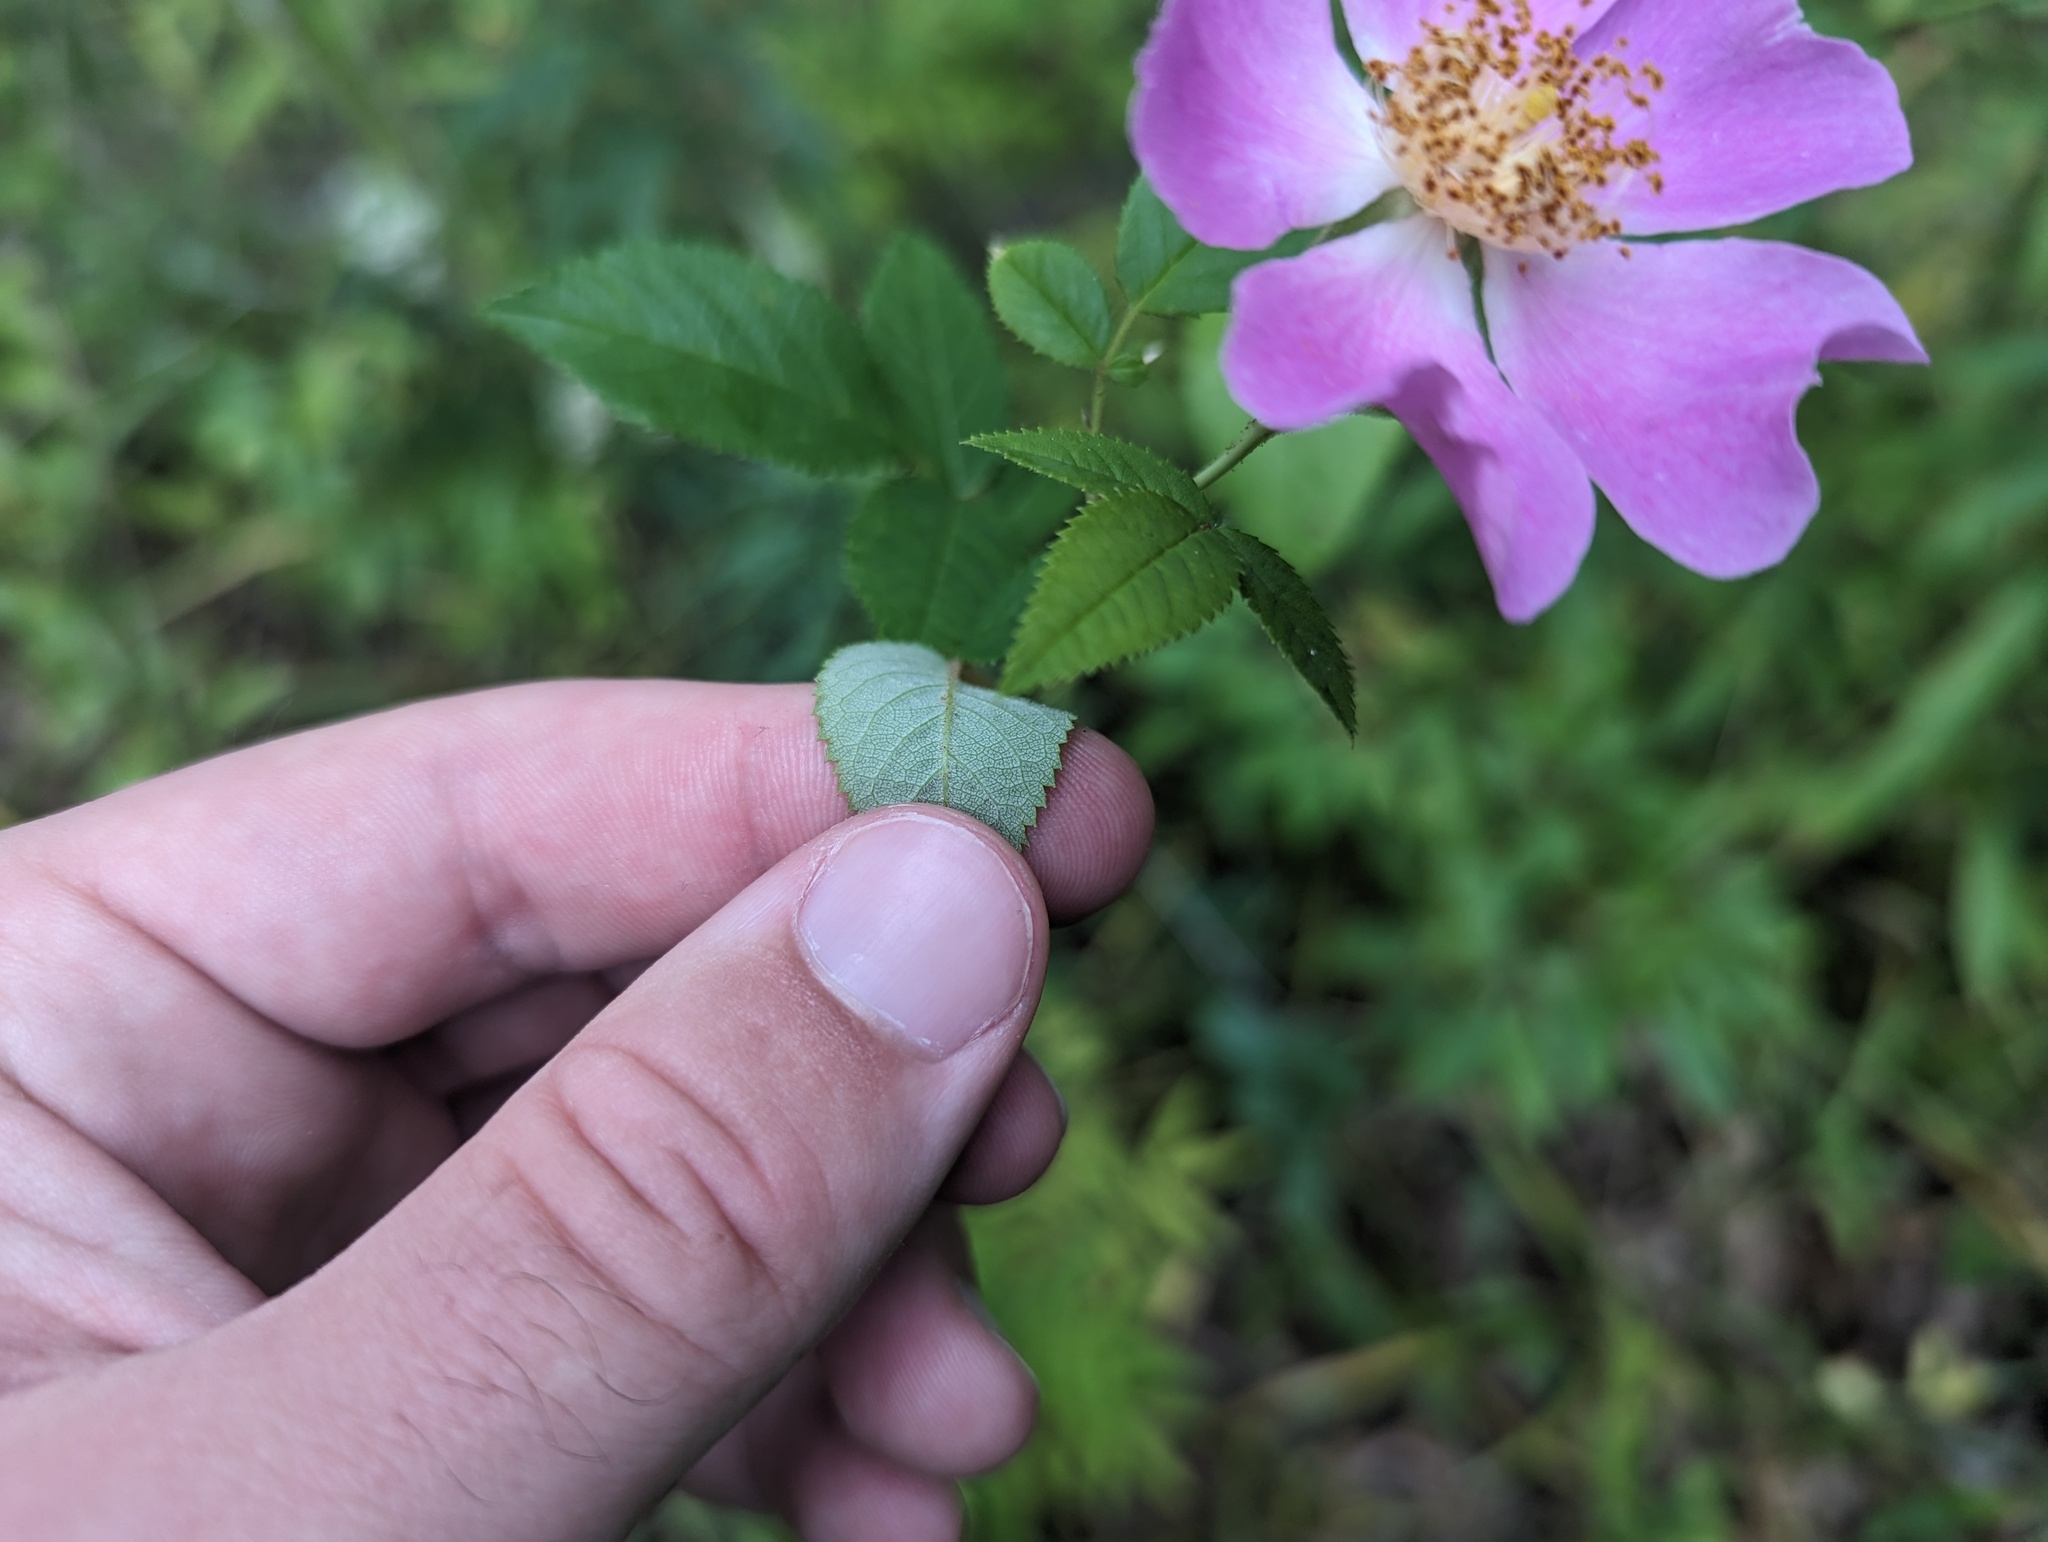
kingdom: Plantae
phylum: Tracheophyta
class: Magnoliopsida
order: Rosales
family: Rosaceae
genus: Rosa
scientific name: Rosa setigera
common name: Prairie rose
